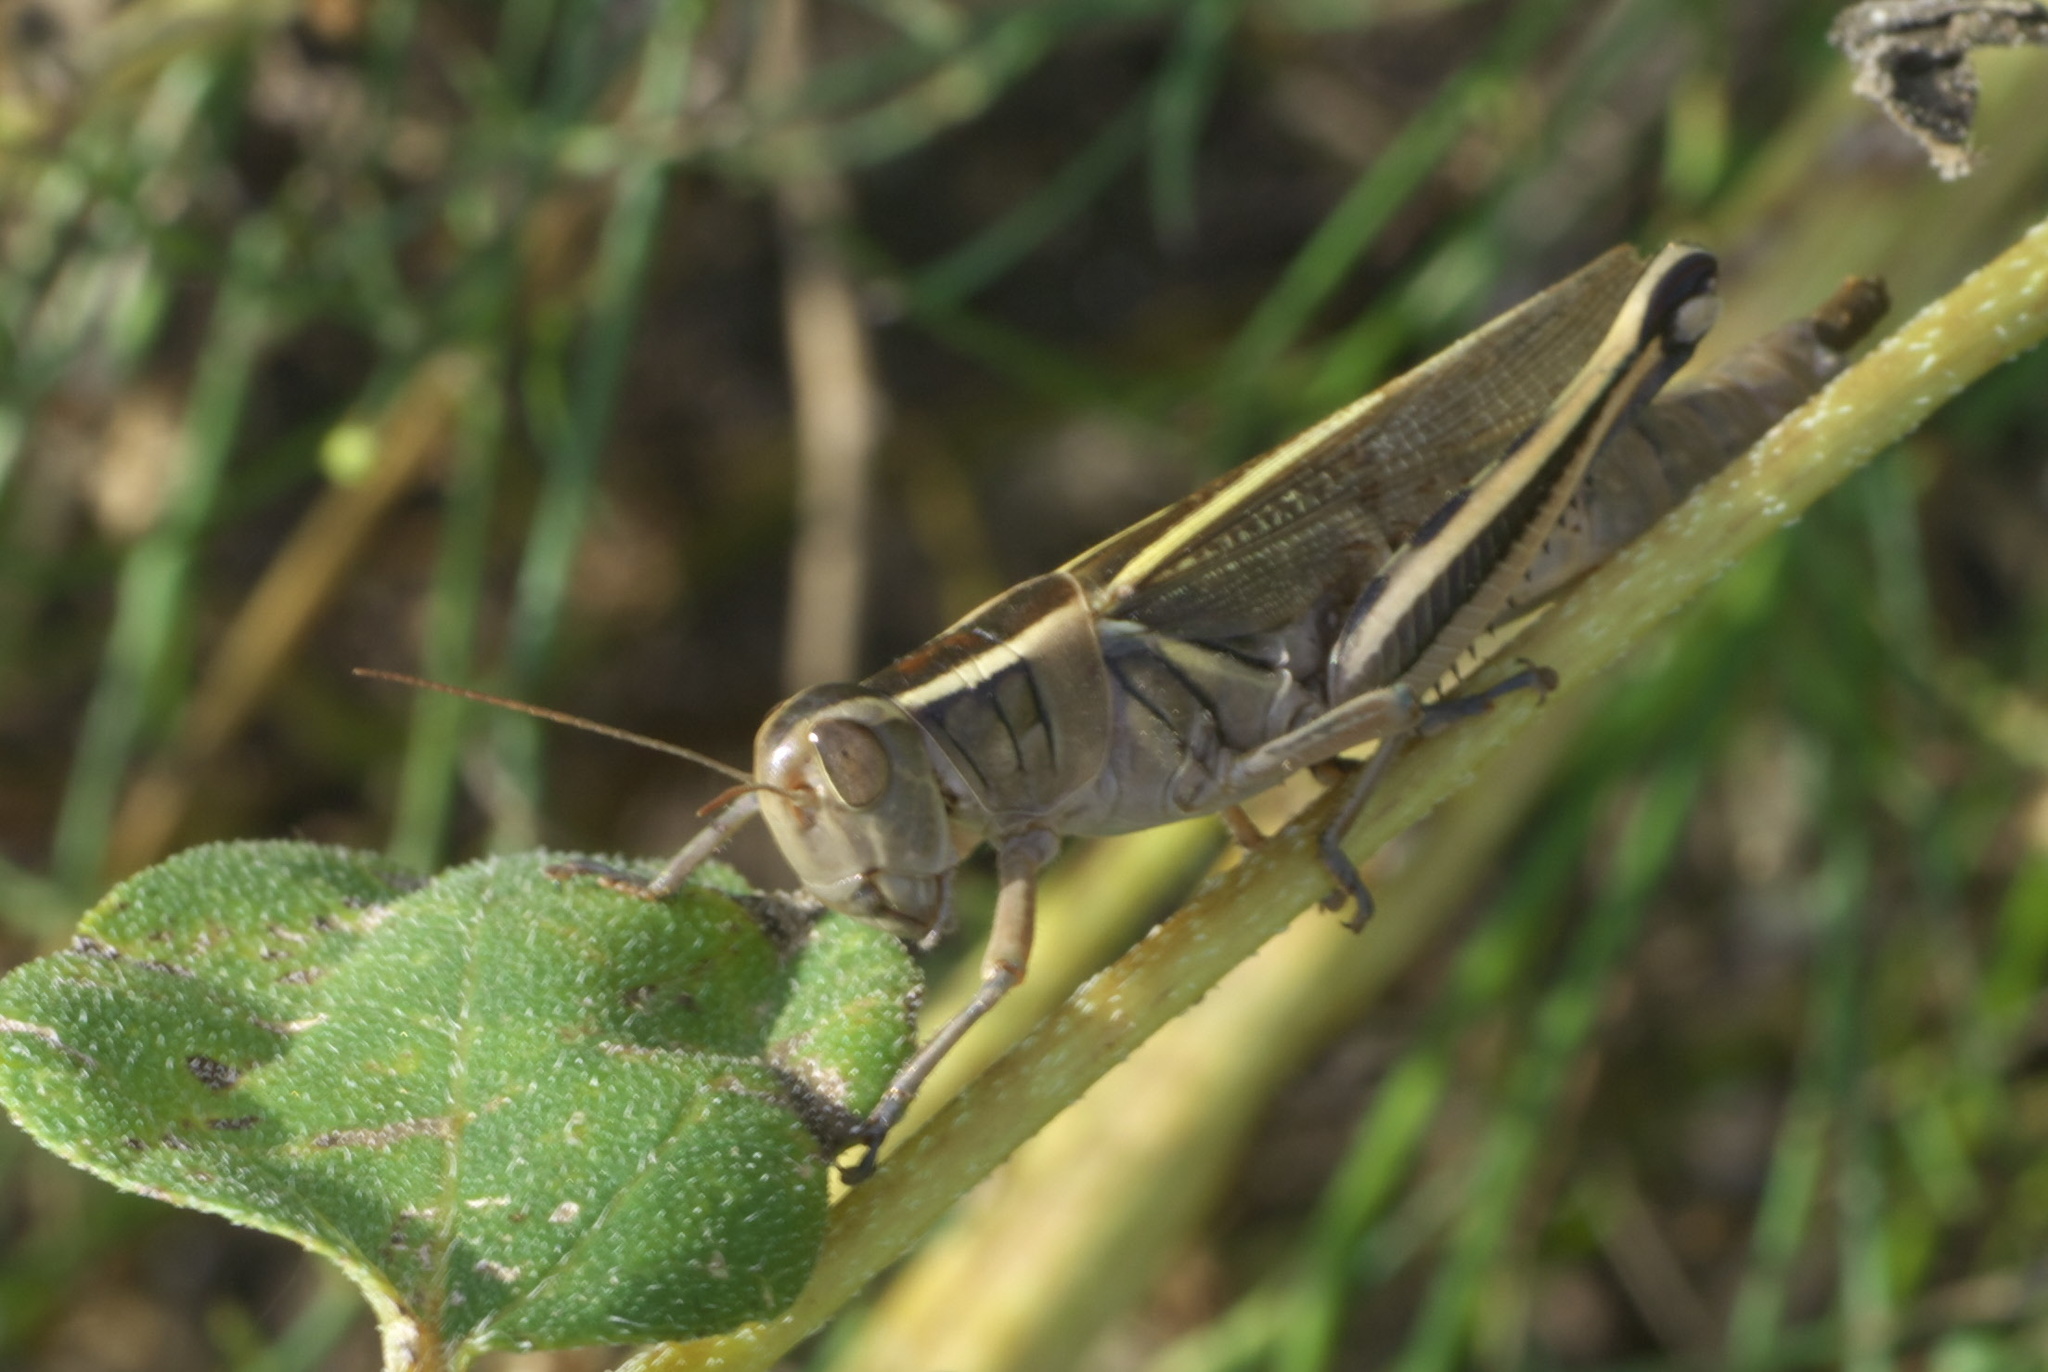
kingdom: Animalia
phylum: Arthropoda
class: Insecta
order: Orthoptera
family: Acrididae
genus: Melanoplus
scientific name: Melanoplus bivittatus
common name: Two-striped grasshopper
